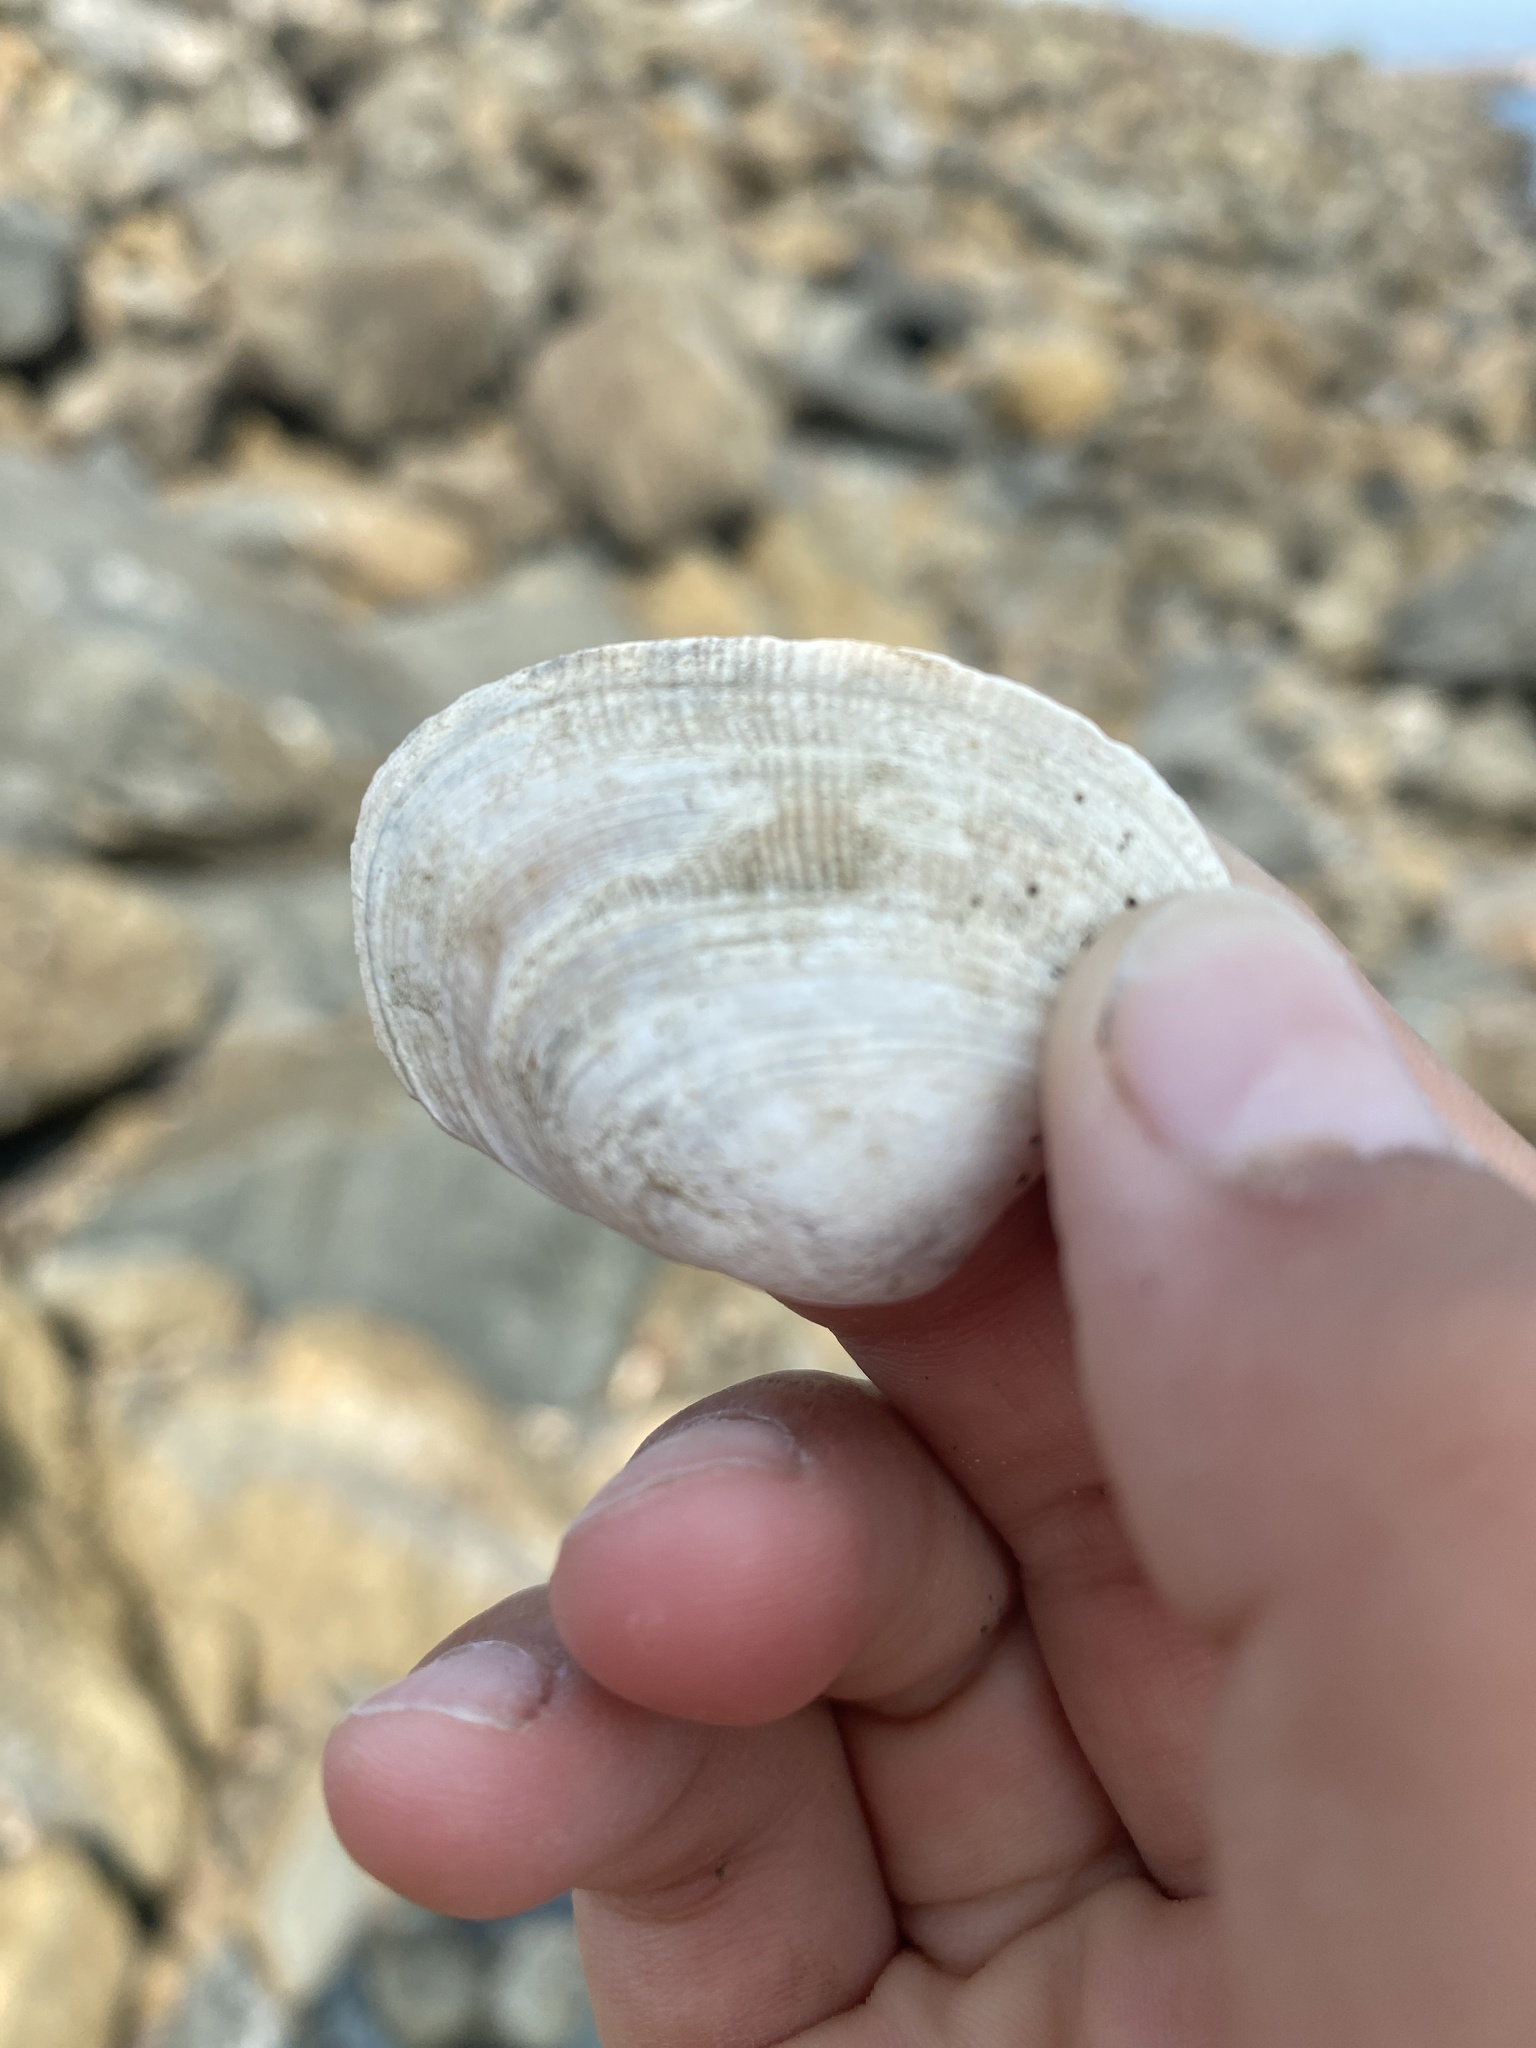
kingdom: Animalia
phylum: Mollusca
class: Bivalvia
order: Venerida
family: Veneridae
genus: Ruditapes
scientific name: Ruditapes philippinarum
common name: Manila clam
